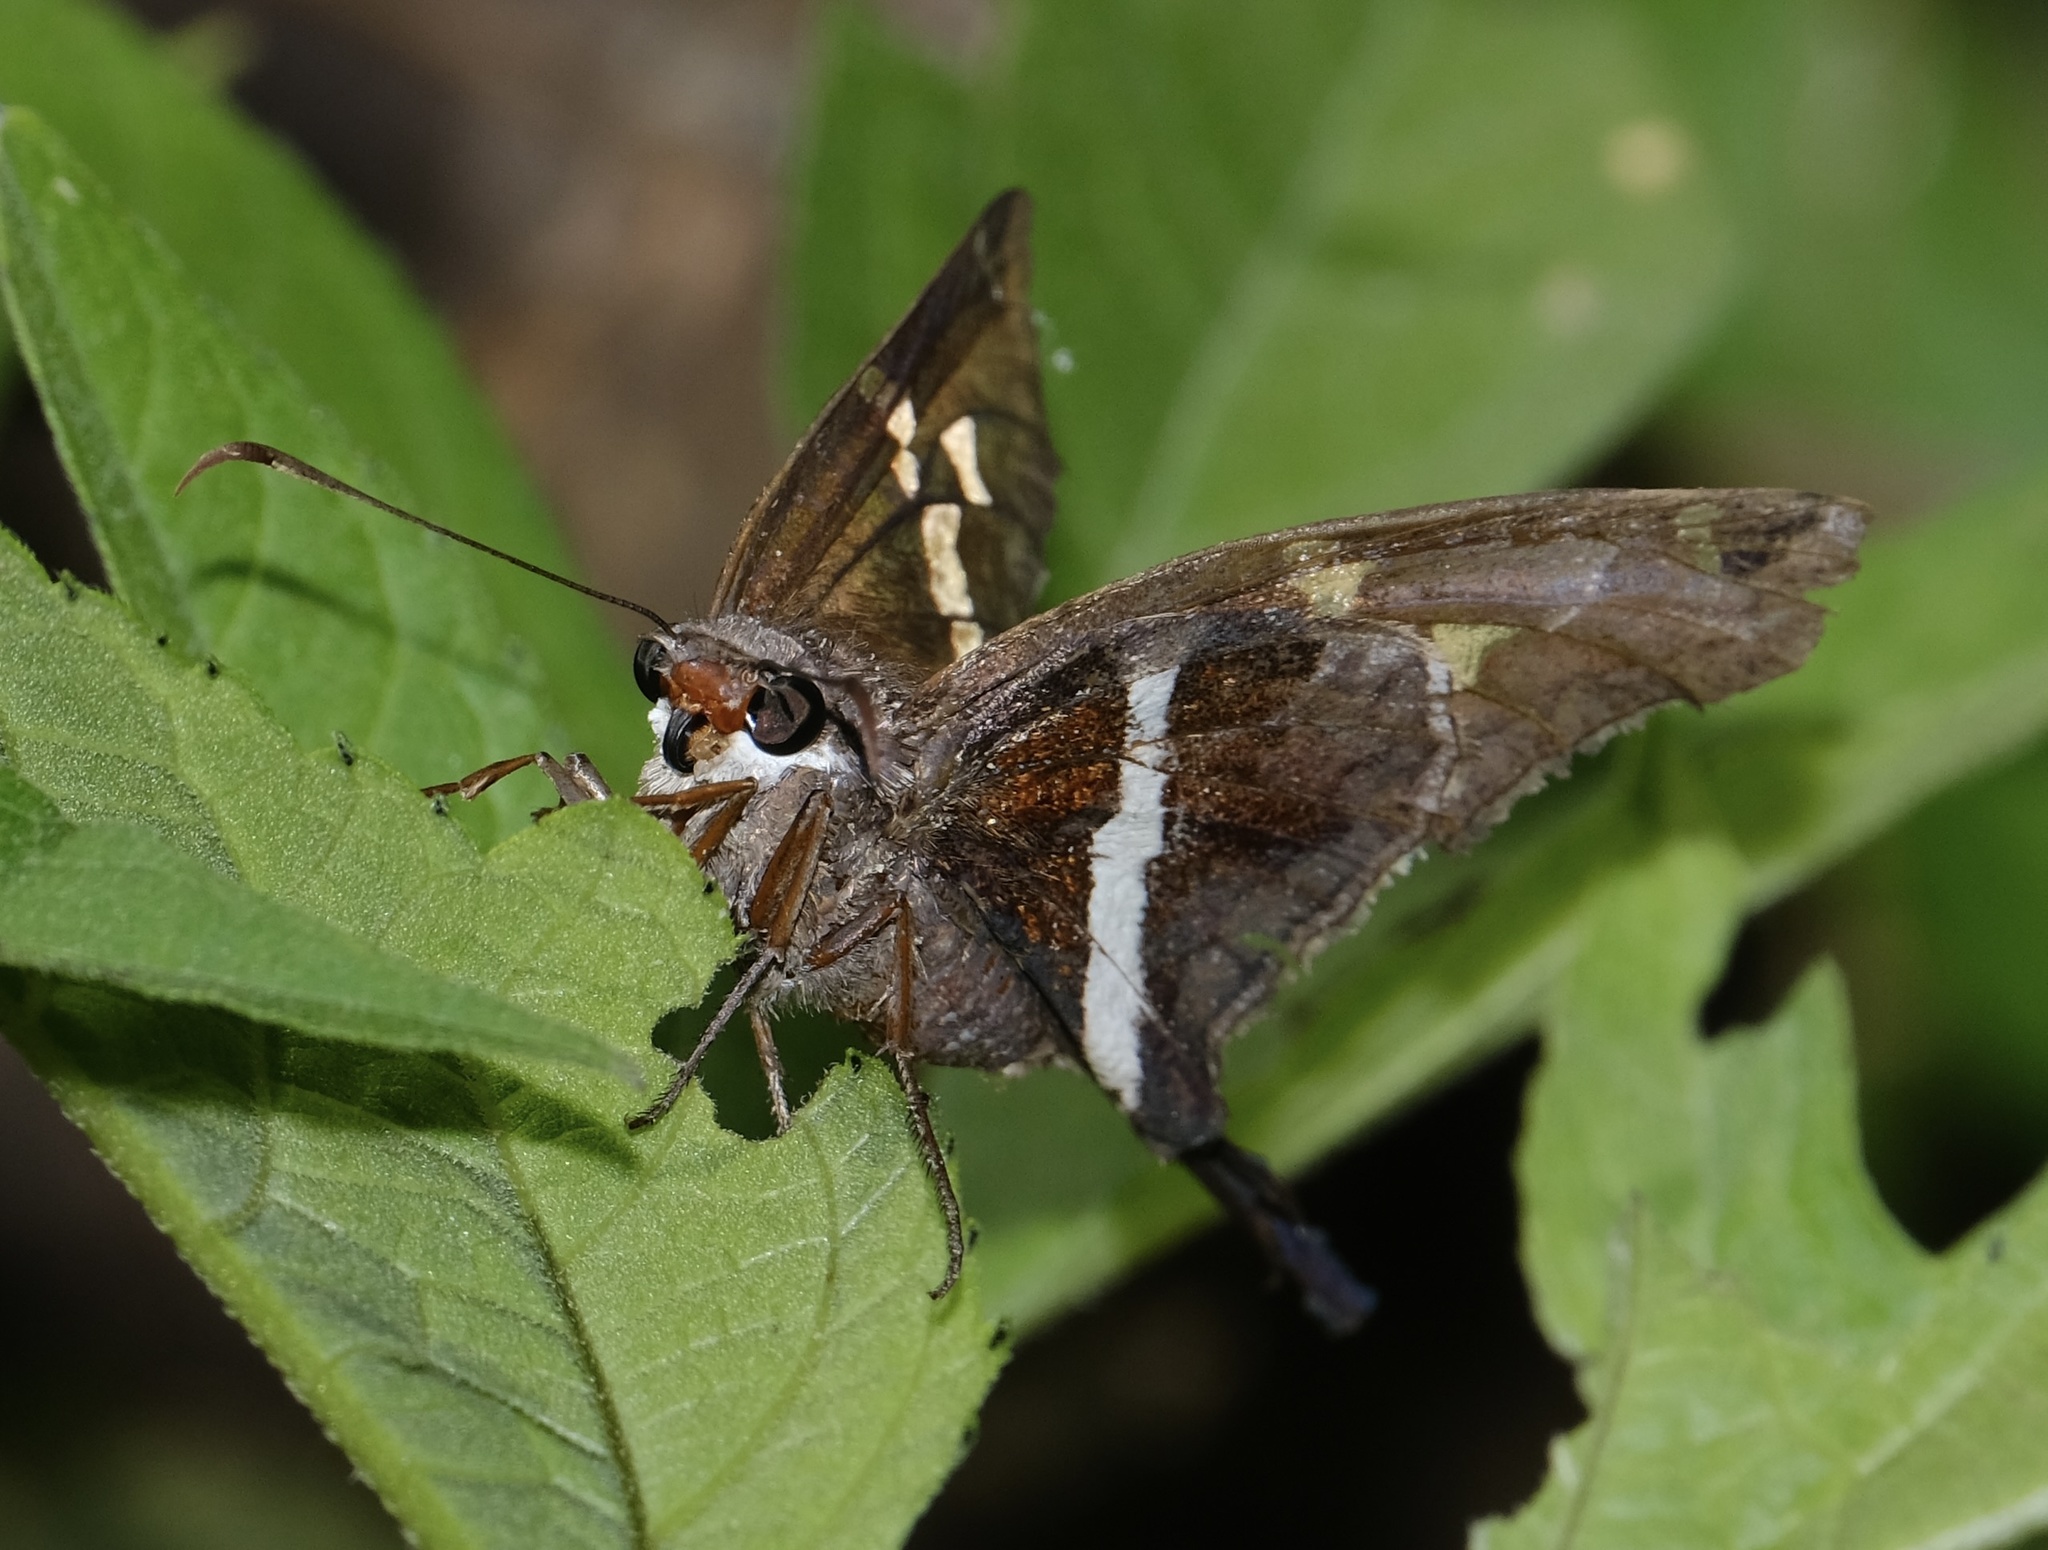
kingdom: Animalia
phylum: Arthropoda
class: Insecta
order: Lepidoptera
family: Hesperiidae
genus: Chioides
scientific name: Chioides catillus
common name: Silverbanded skipper
